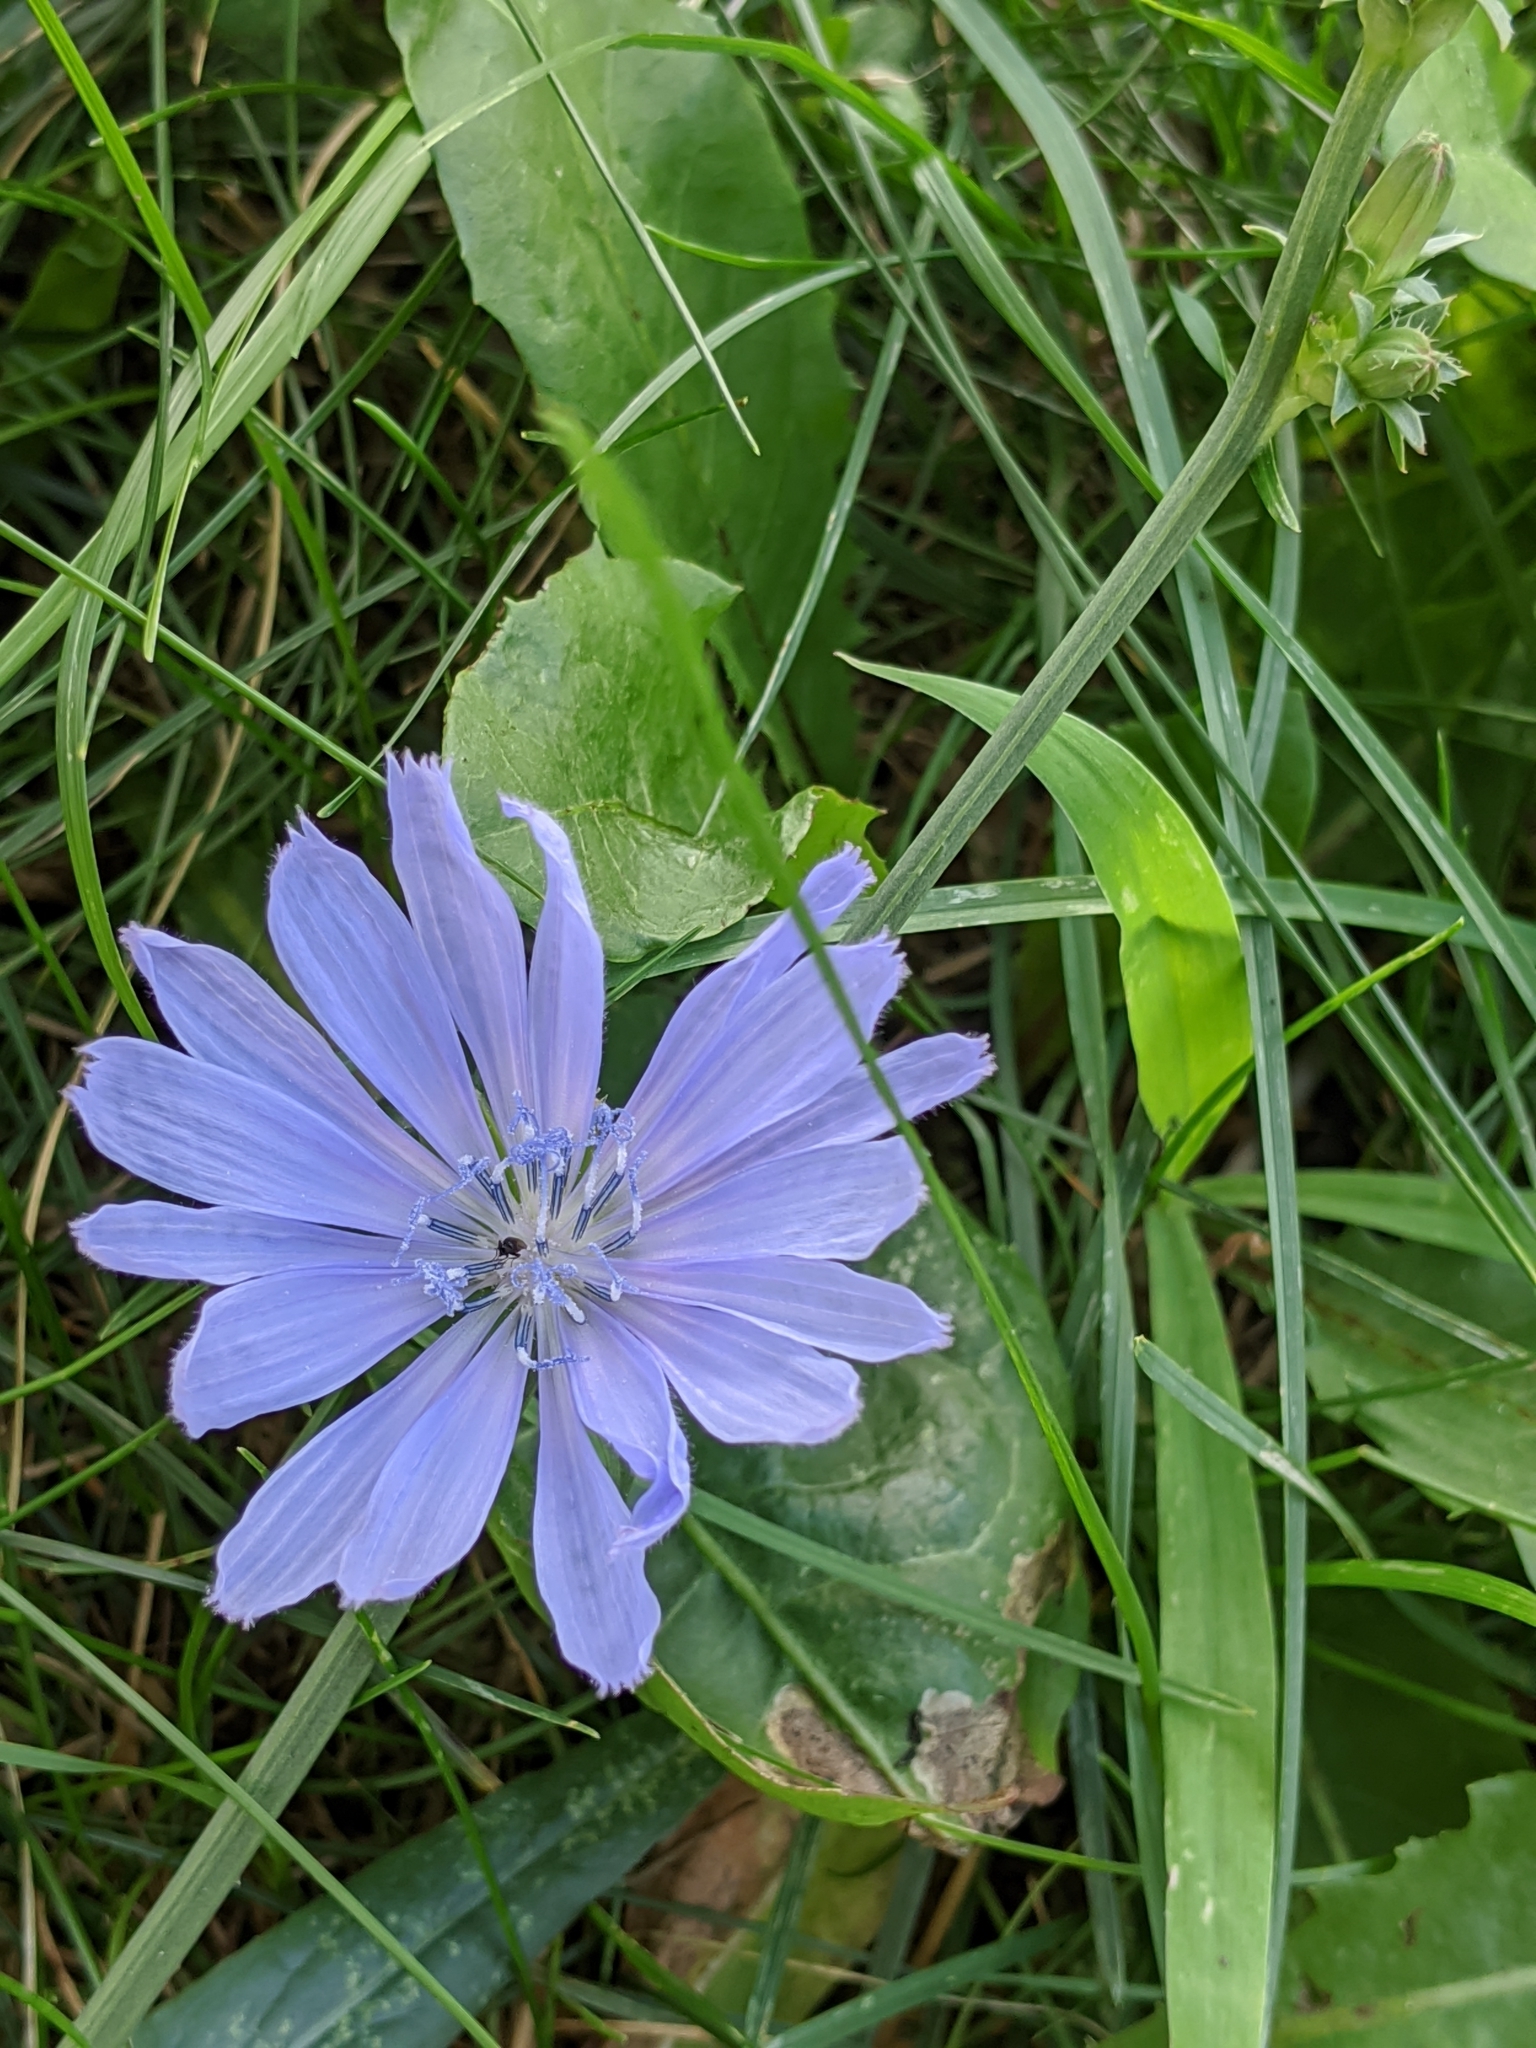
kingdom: Plantae
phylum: Tracheophyta
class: Magnoliopsida
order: Asterales
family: Asteraceae
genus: Cichorium
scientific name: Cichorium intybus
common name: Chicory
